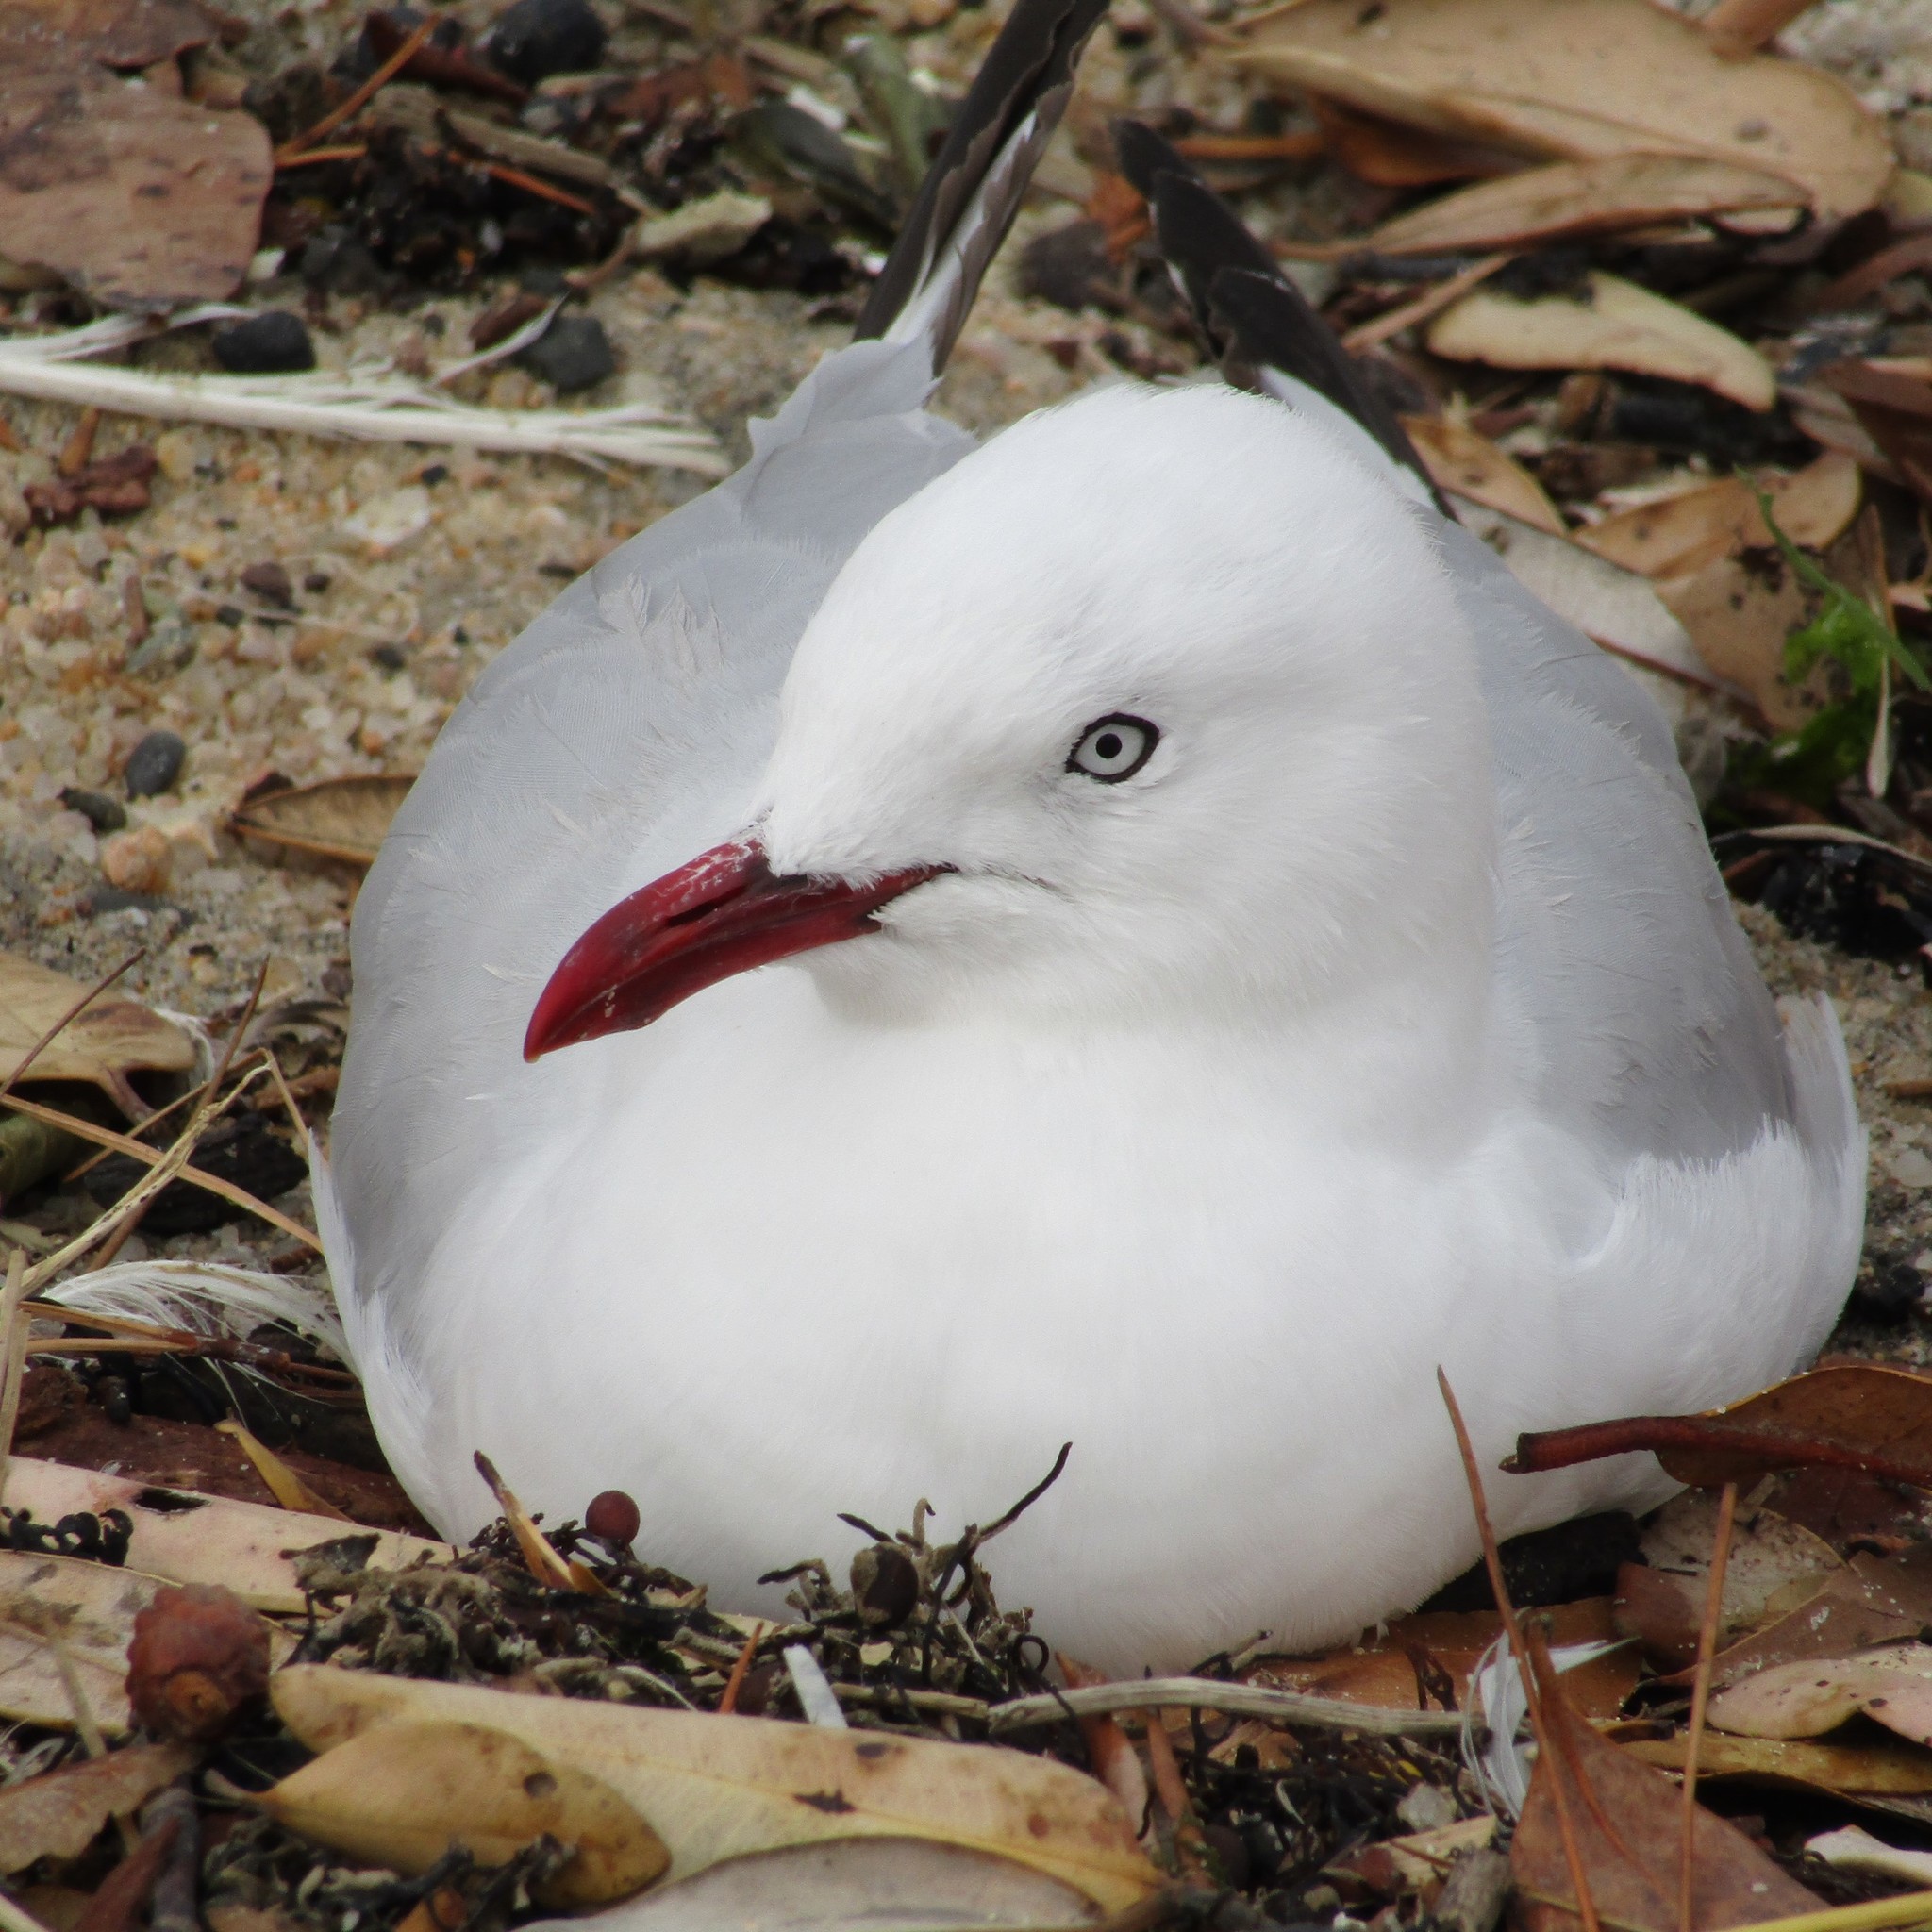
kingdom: Animalia
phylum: Chordata
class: Aves
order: Charadriiformes
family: Laridae
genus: Chroicocephalus
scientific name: Chroicocephalus novaehollandiae
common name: Silver gull
